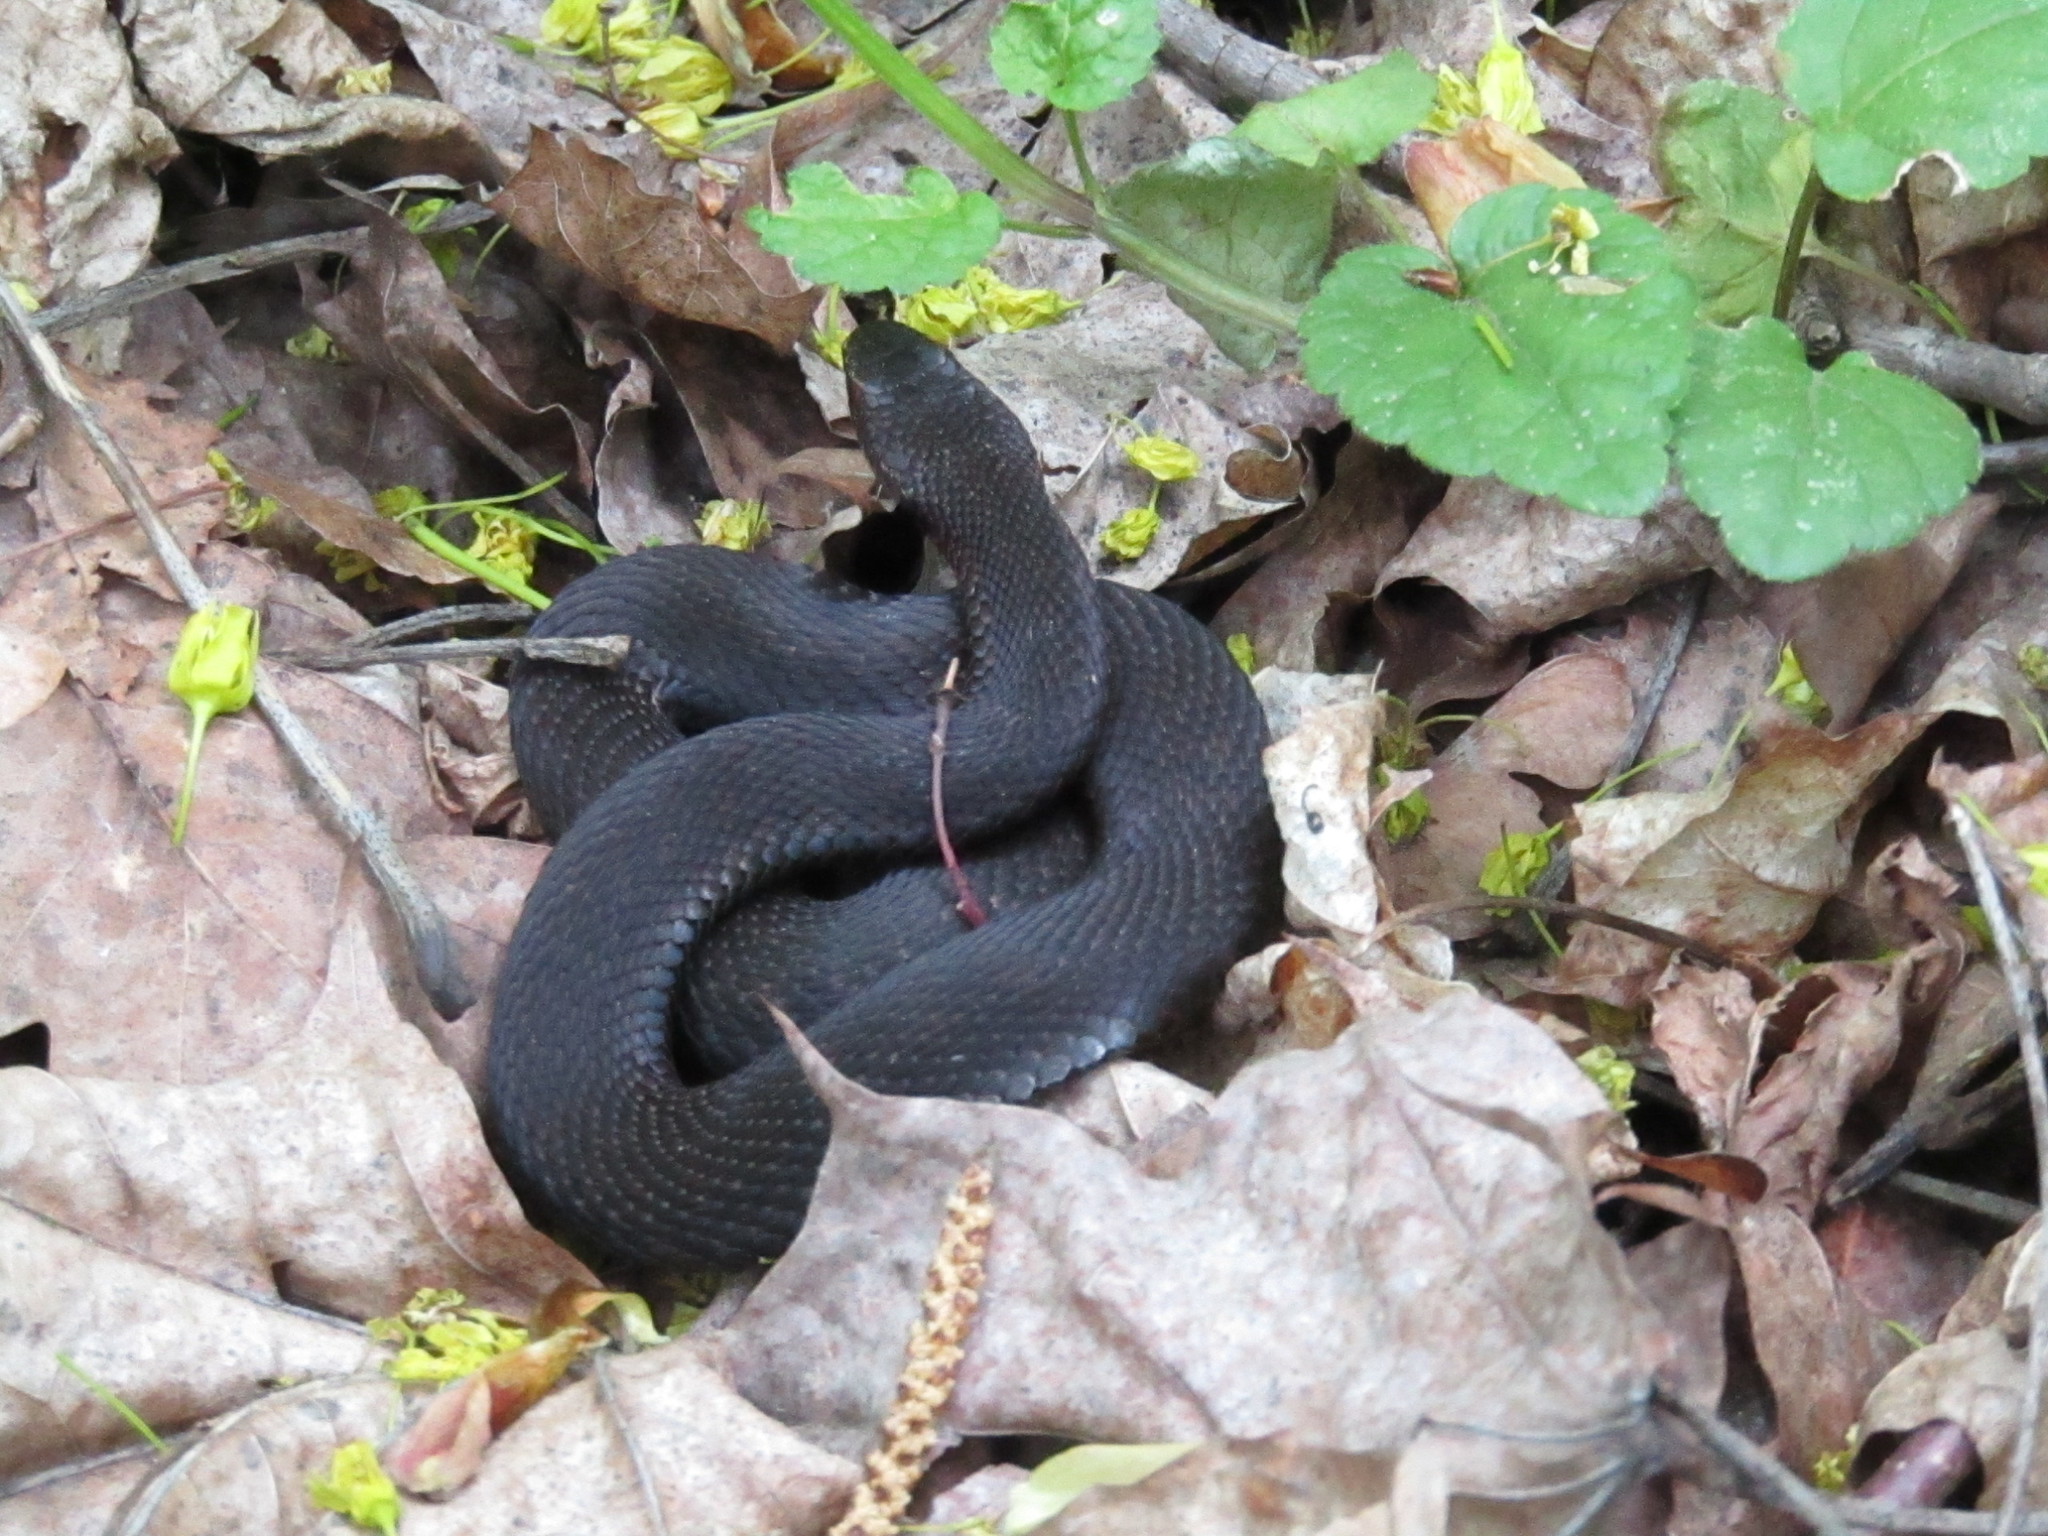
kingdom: Animalia
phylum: Chordata
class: Squamata
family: Viperidae
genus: Vipera
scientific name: Vipera berus
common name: Adder
